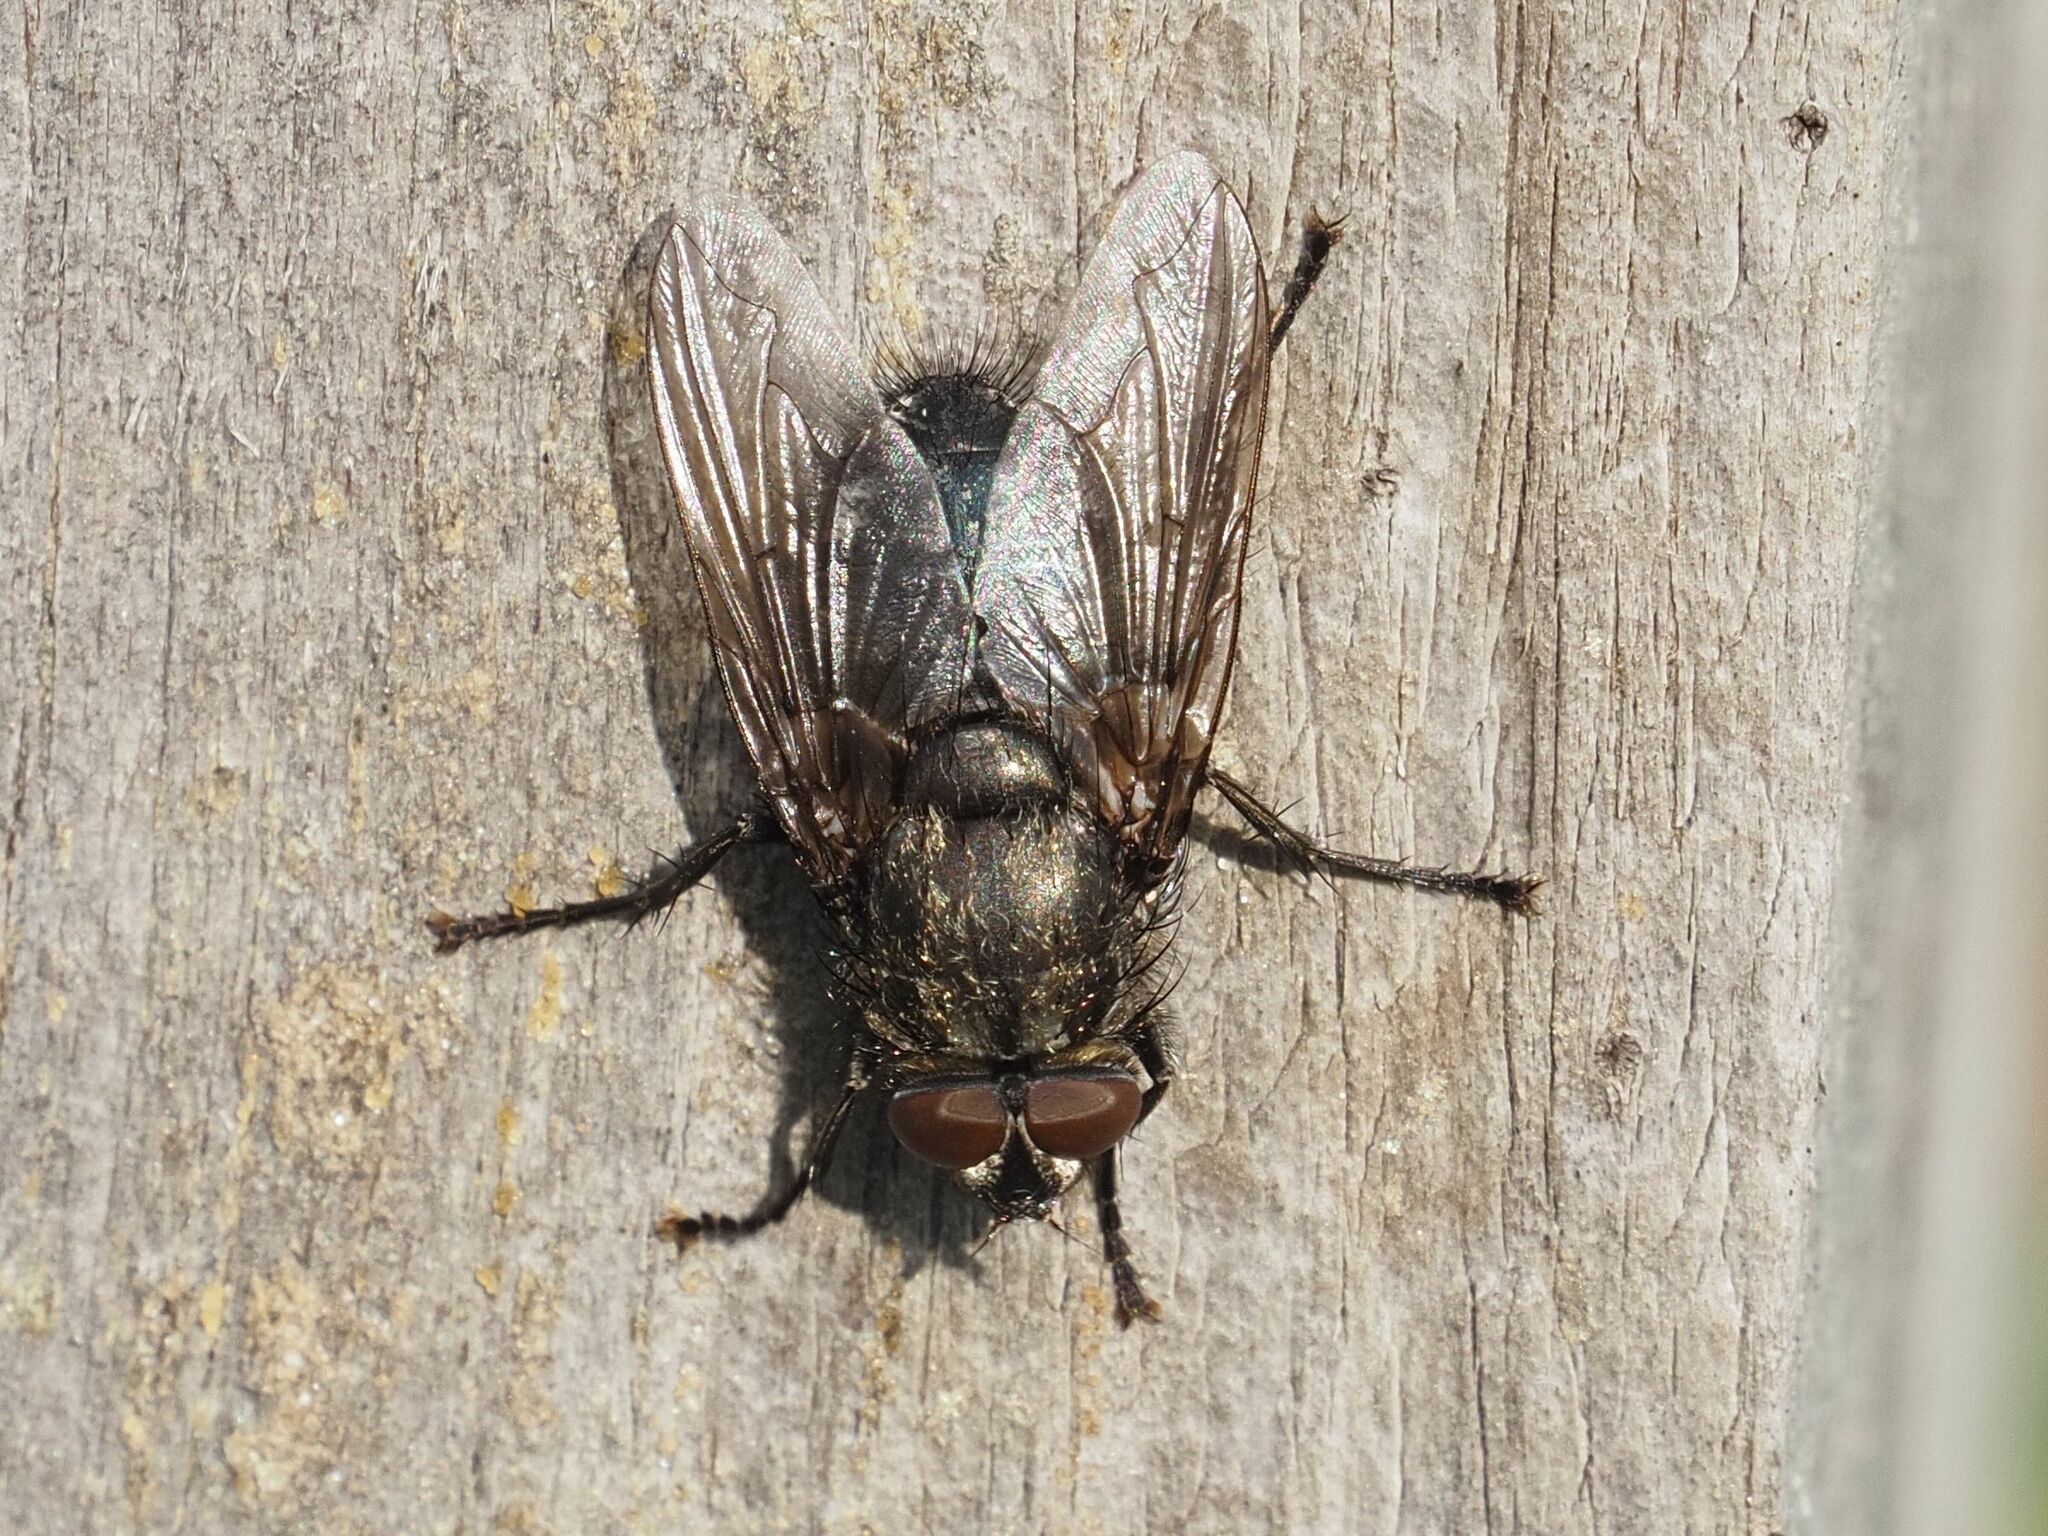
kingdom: Animalia
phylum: Arthropoda
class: Insecta
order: Diptera
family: Polleniidae
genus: Pollenia
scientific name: Pollenia vagabunda
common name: Vagabund cluster fly
